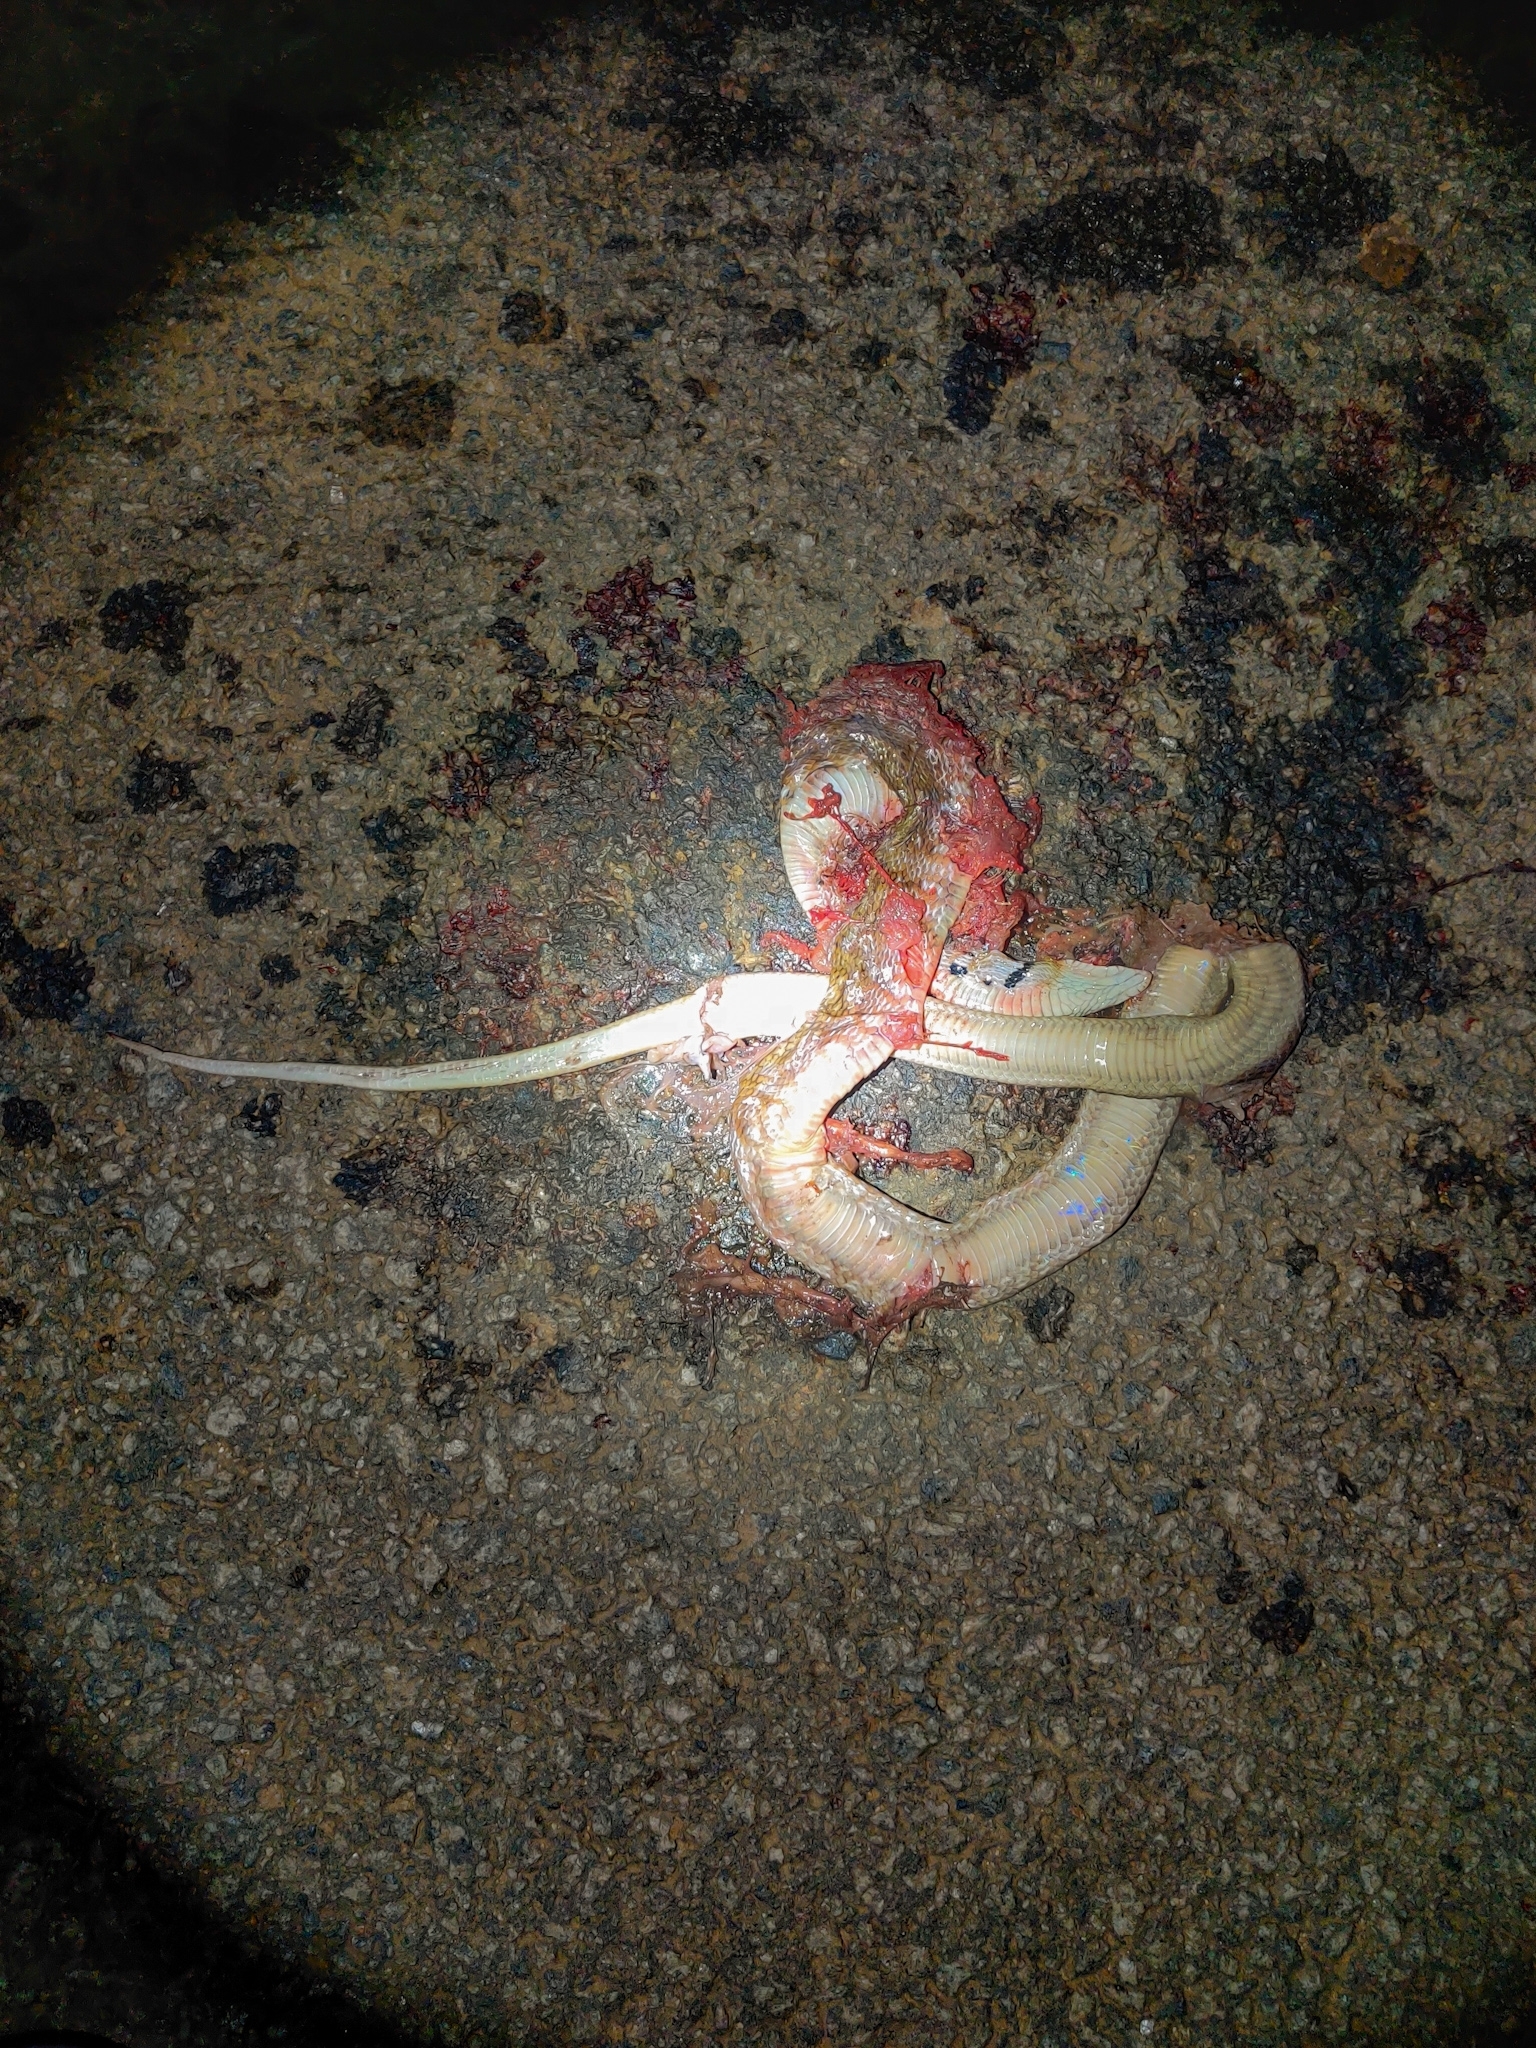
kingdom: Animalia
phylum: Chordata
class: Squamata
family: Colubridae
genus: Coelognathus
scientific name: Coelognathus helena
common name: Trinket snake
